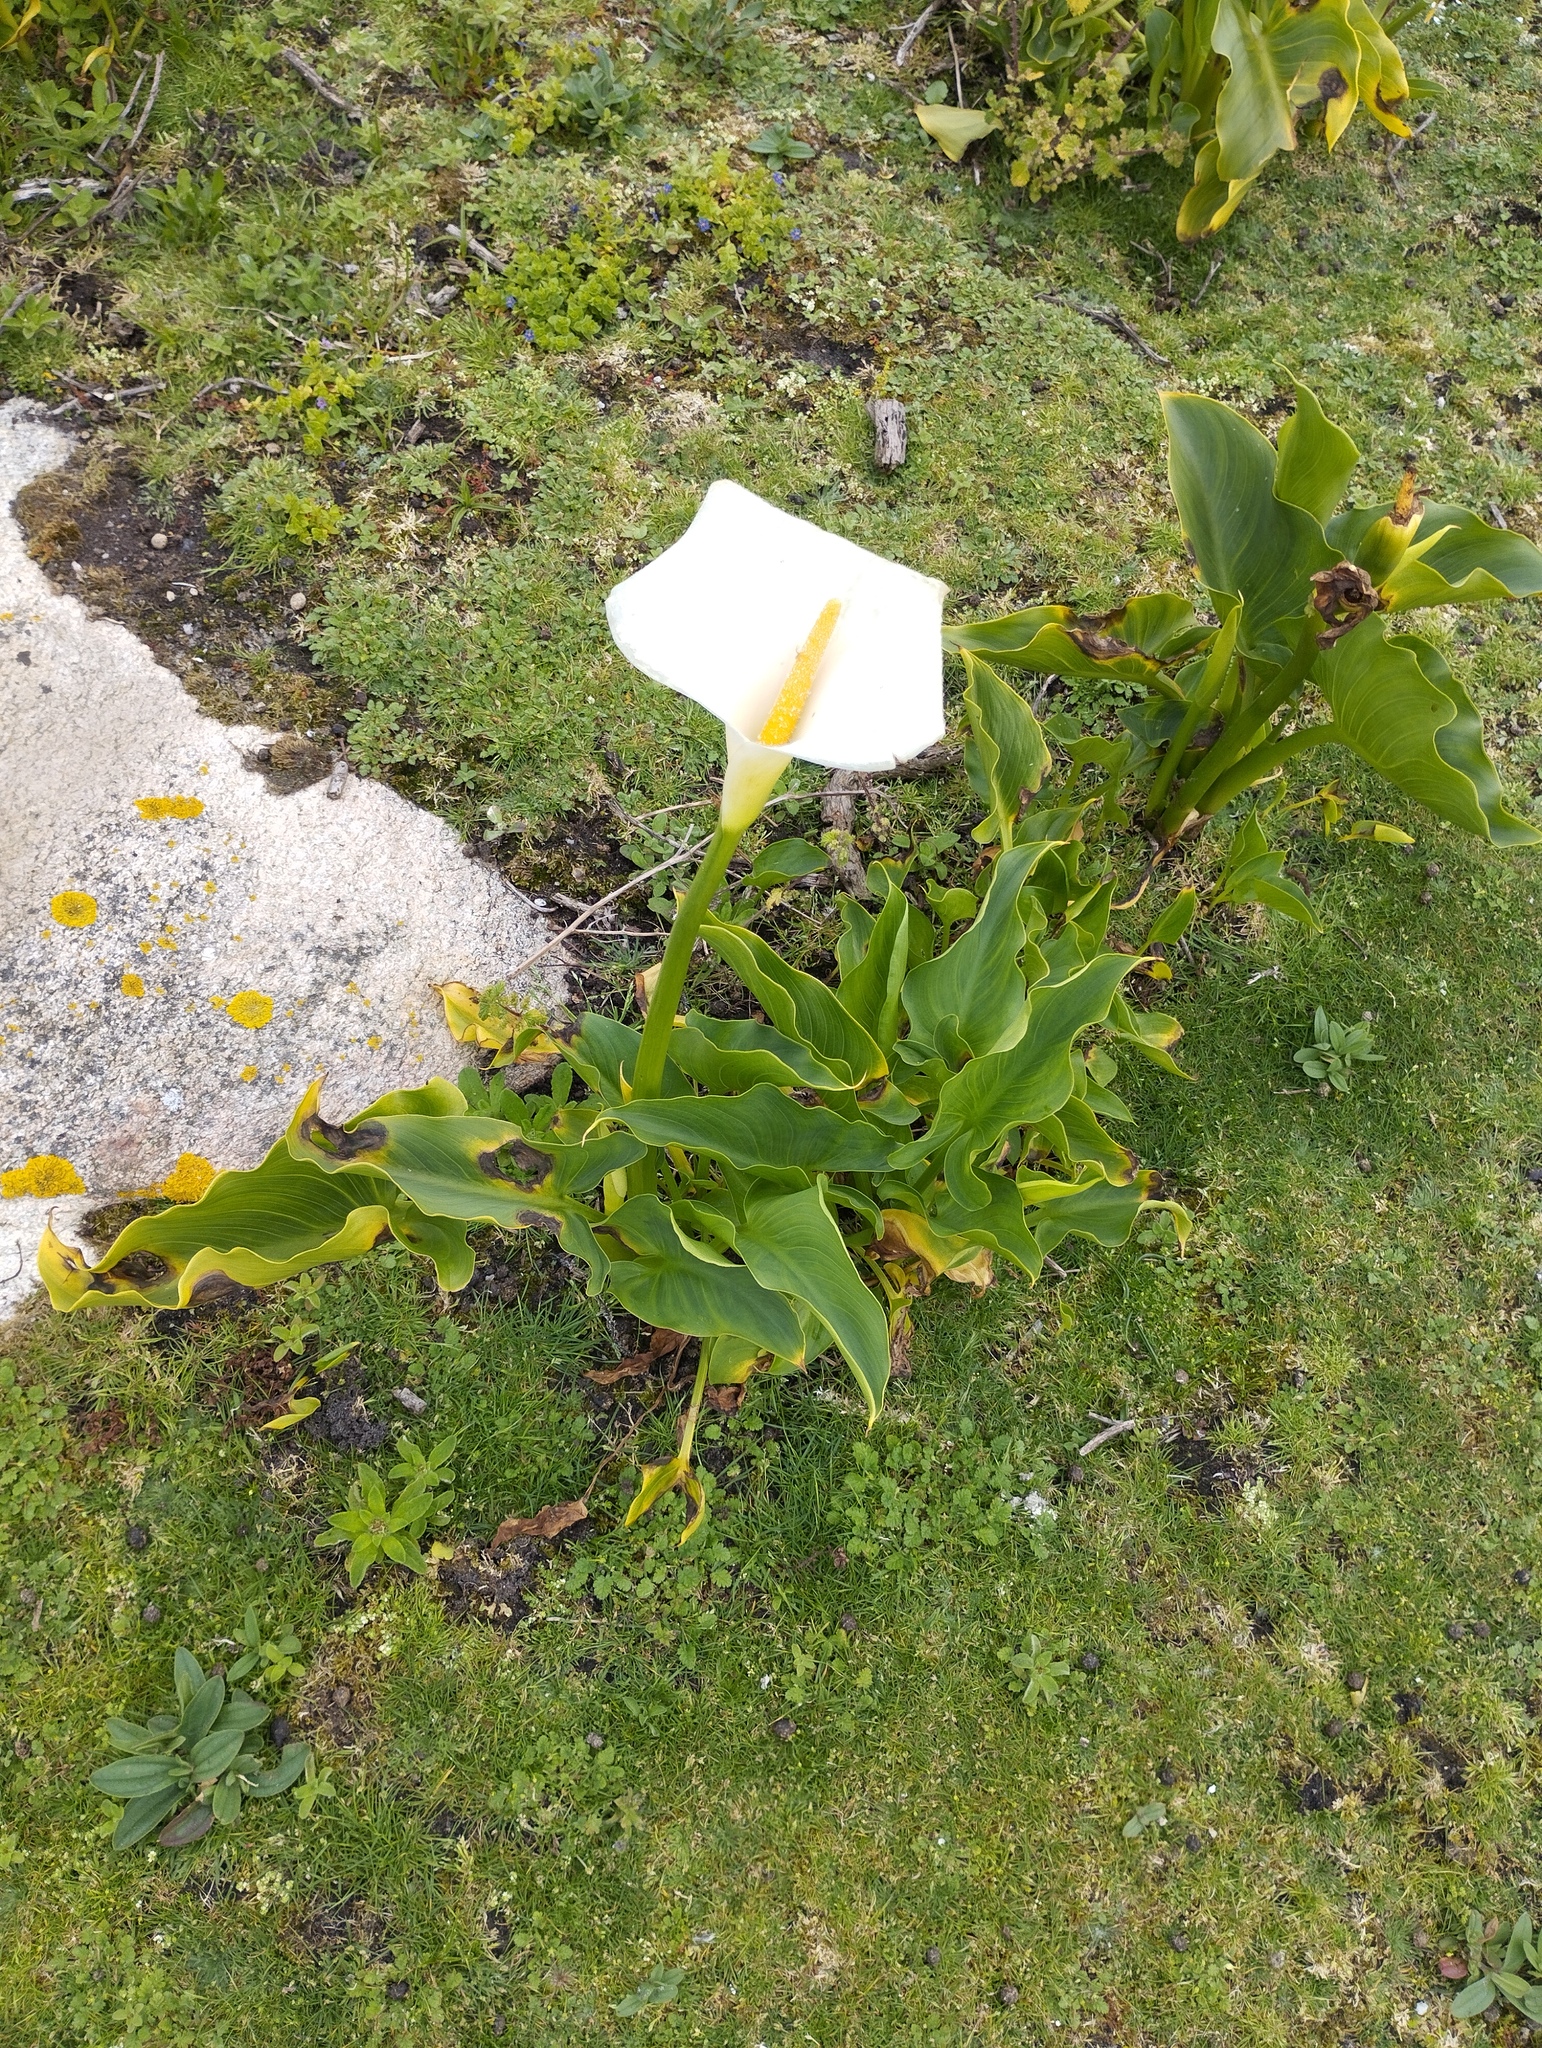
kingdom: Plantae
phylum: Tracheophyta
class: Liliopsida
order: Alismatales
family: Araceae
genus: Zantedeschia
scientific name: Zantedeschia aethiopica
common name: Altar-lily
